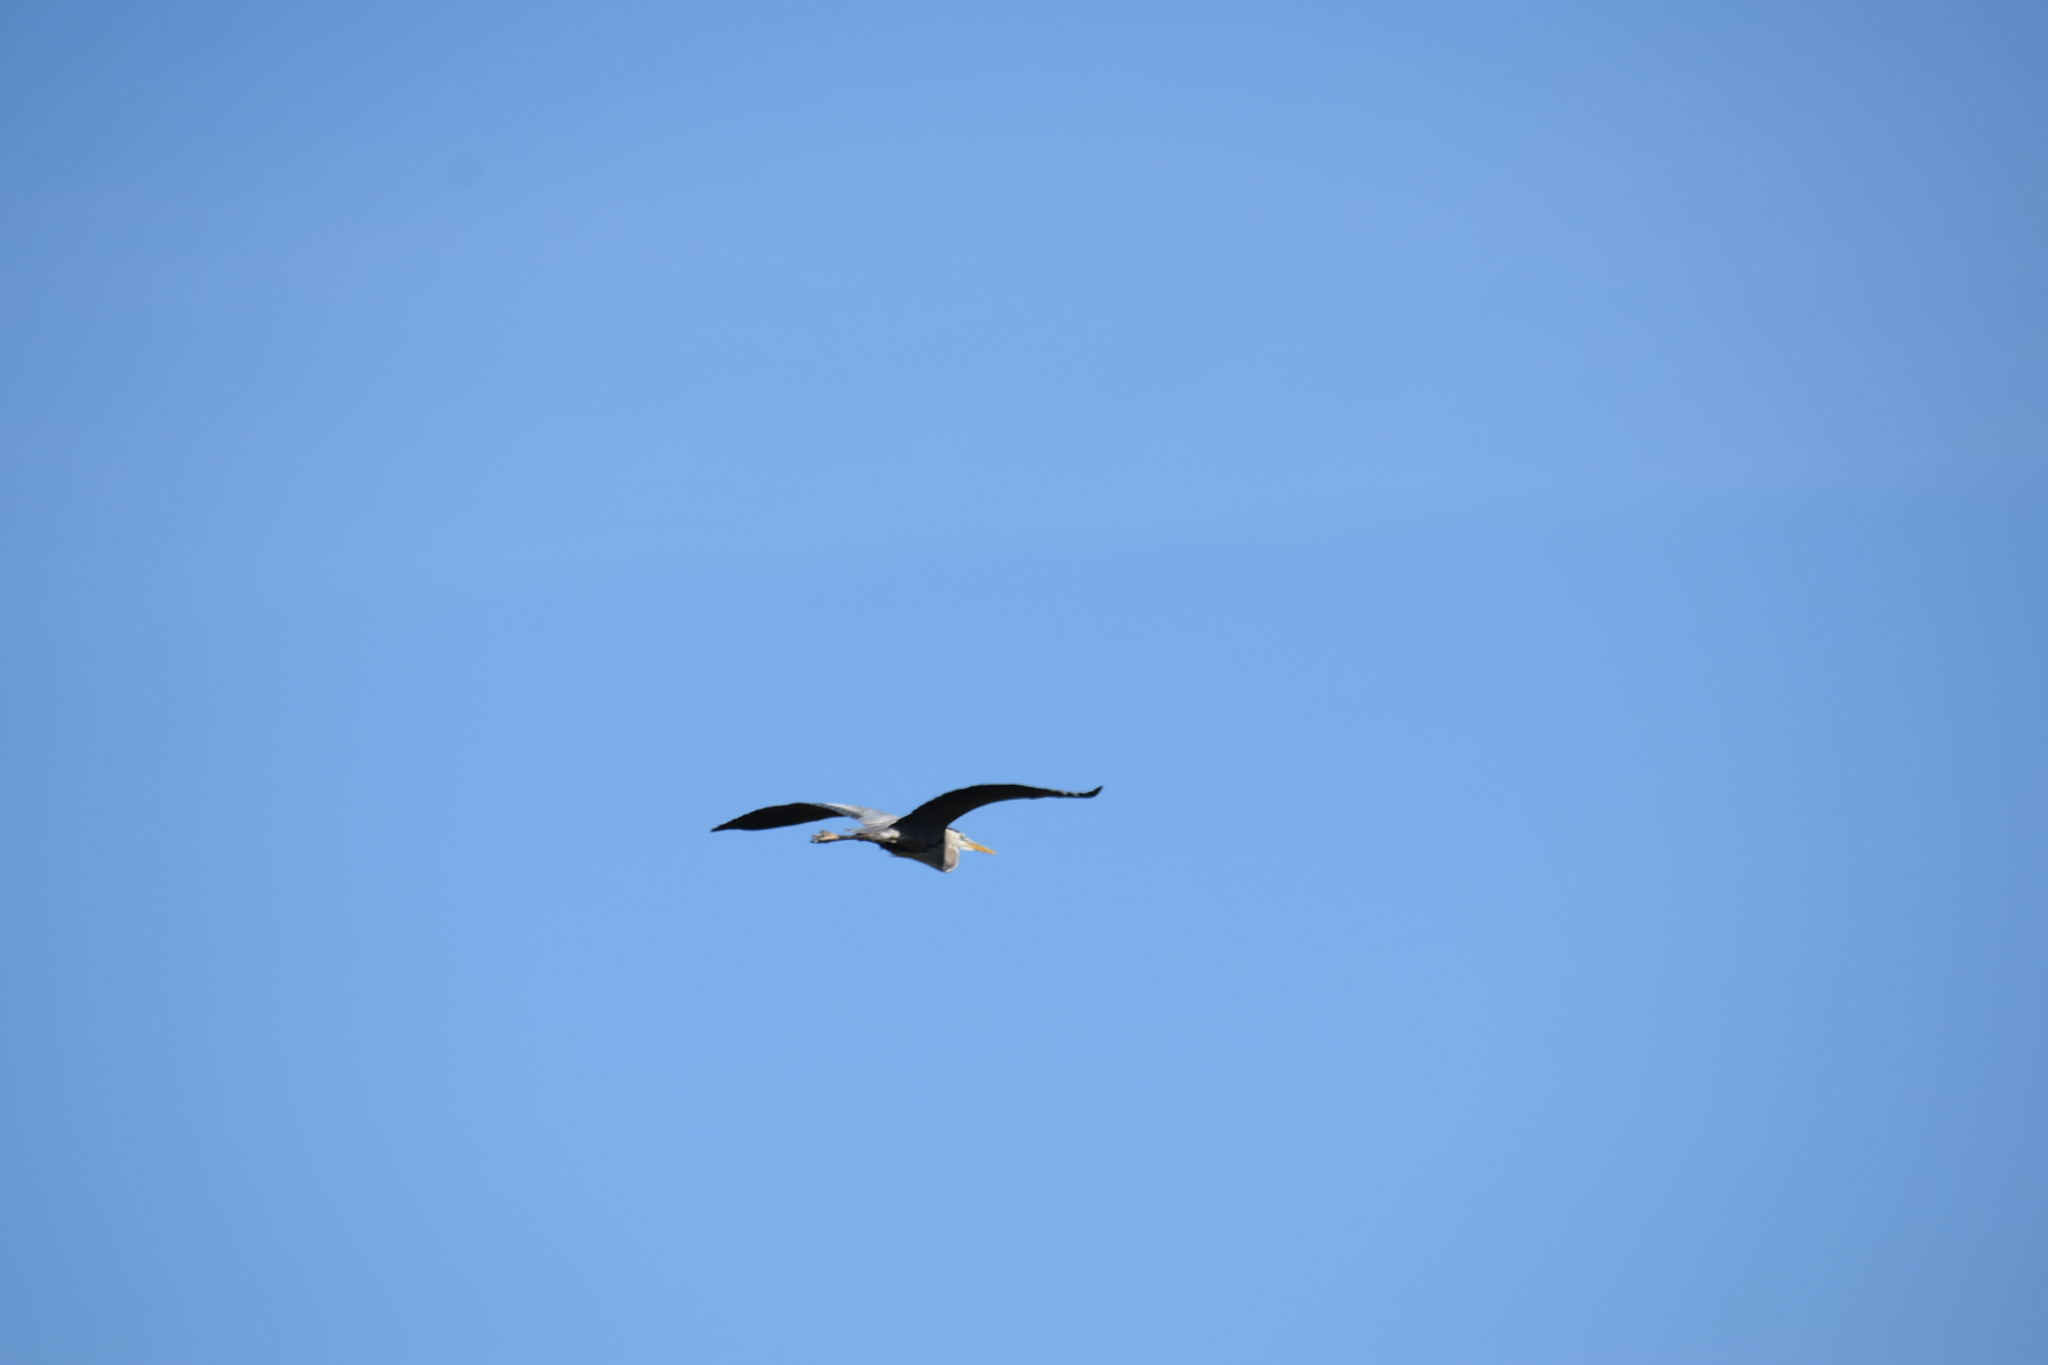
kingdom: Animalia
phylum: Chordata
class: Aves
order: Pelecaniformes
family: Ardeidae
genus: Ardea
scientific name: Ardea herodias
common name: Great blue heron
